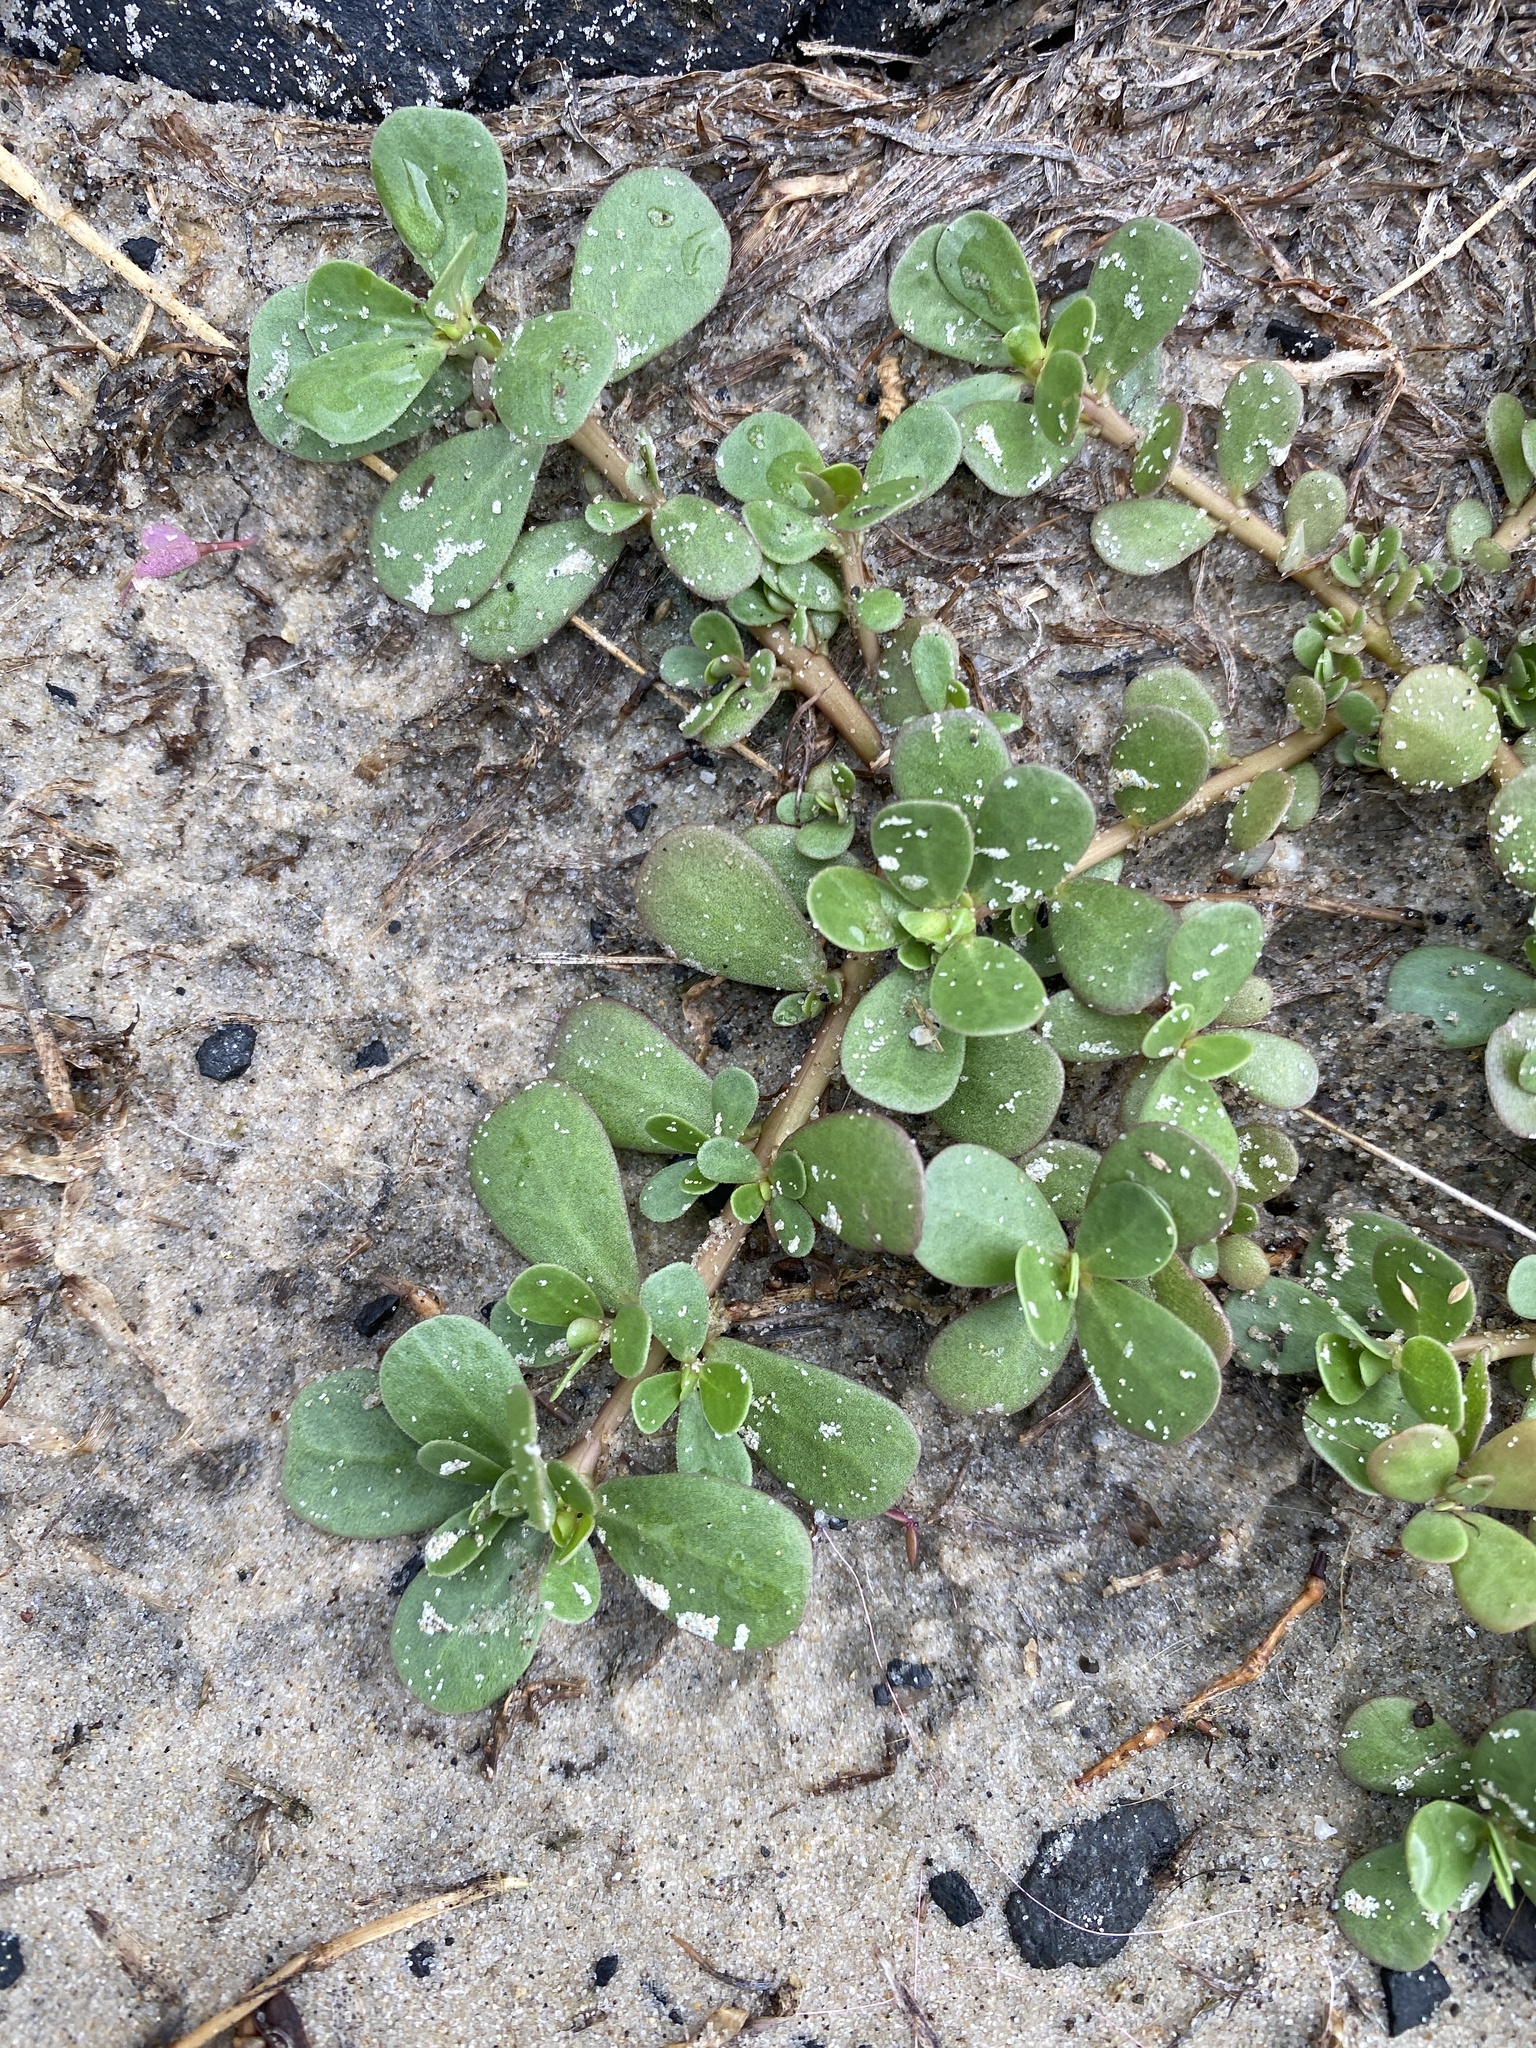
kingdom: Plantae
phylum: Tracheophyta
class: Magnoliopsida
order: Caryophyllales
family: Portulacaceae
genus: Portulaca
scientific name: Portulaca oleracea
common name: Common purslane
